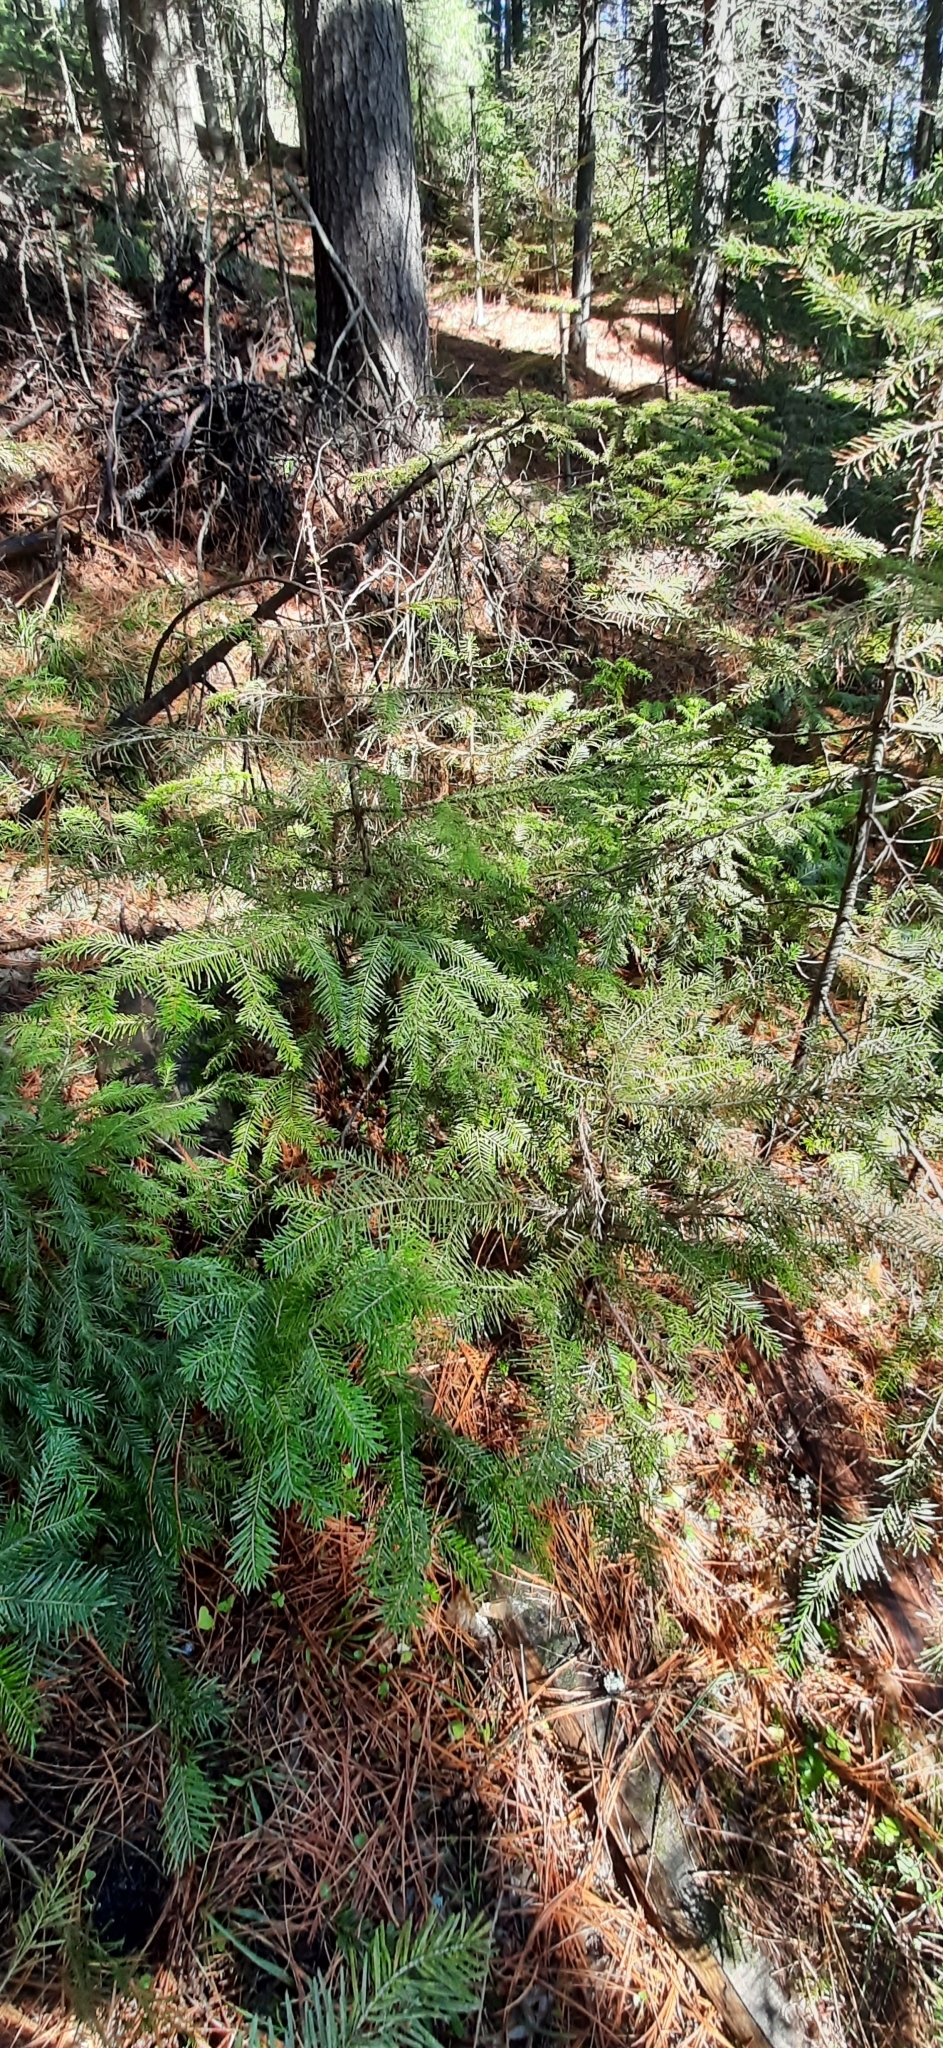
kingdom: Plantae
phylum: Tracheophyta
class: Pinopsida
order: Pinales
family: Pinaceae
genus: Abies
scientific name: Abies sibirica
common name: Siberian fir
